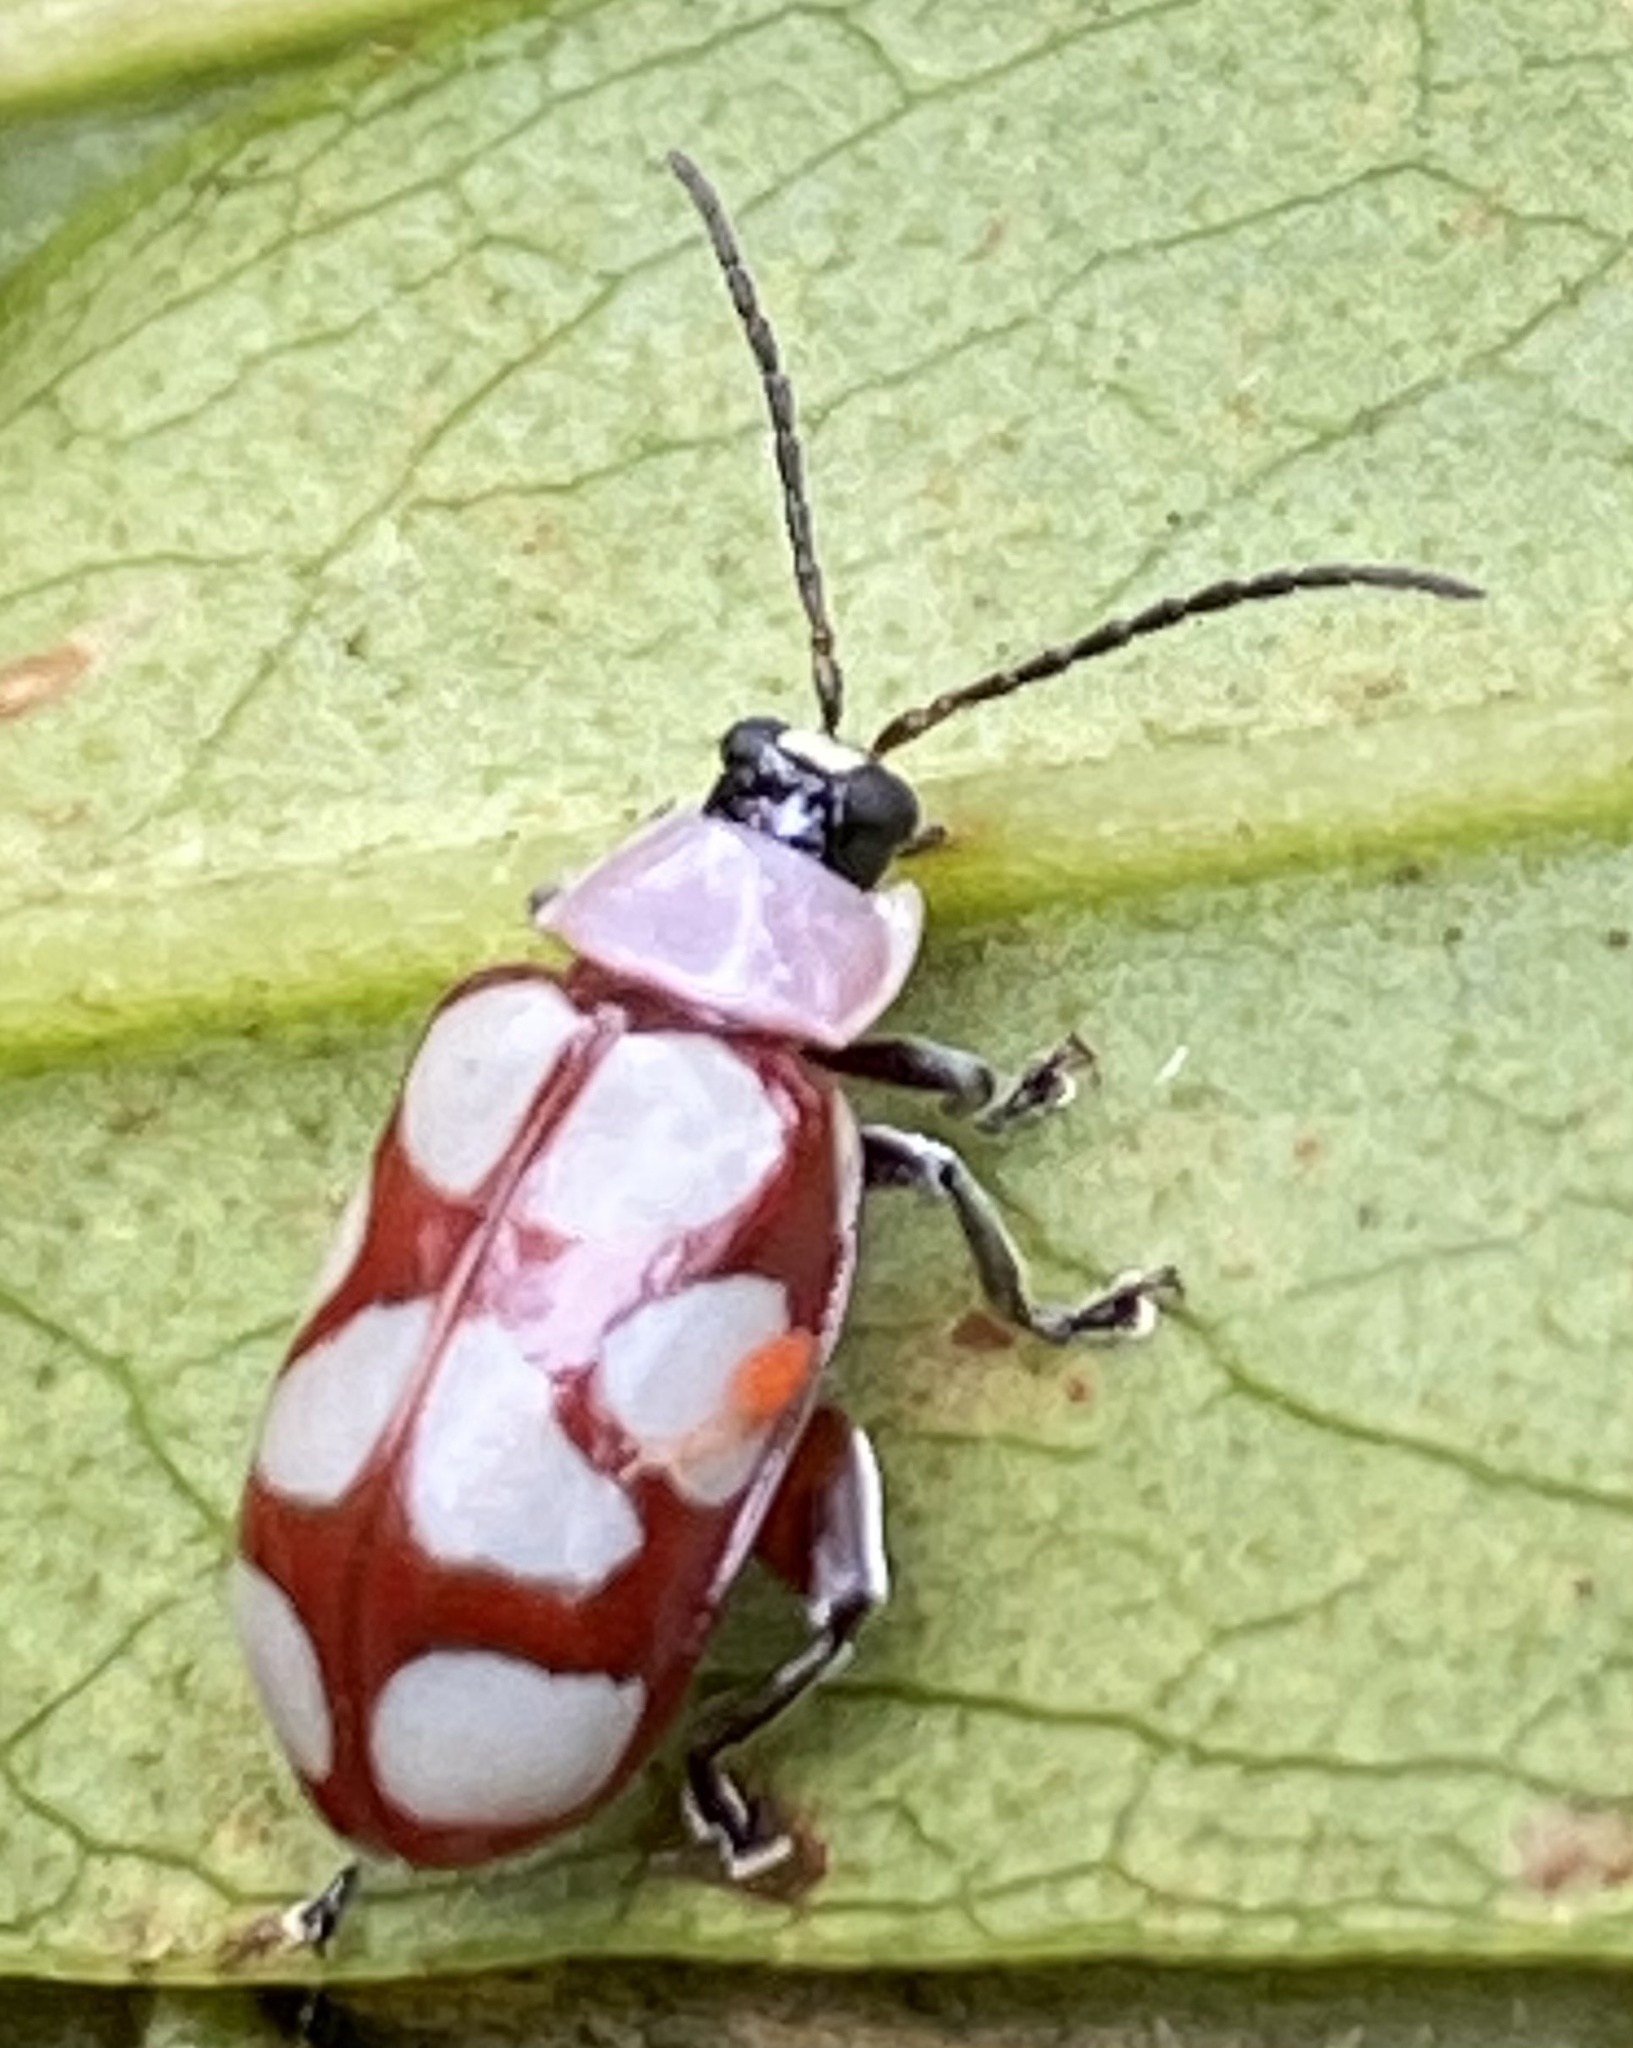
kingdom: Animalia
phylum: Arthropoda
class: Insecta
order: Coleoptera
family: Chrysomelidae
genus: Omophoita
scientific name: Omophoita
